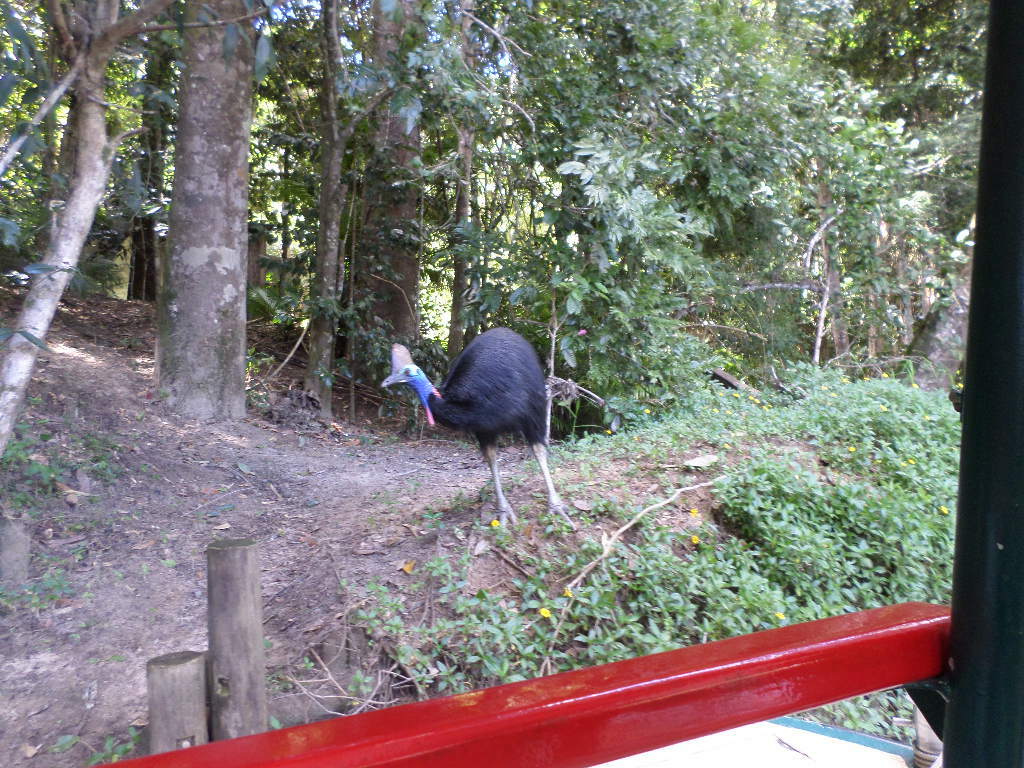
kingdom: Animalia
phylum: Chordata
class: Aves
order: Casuariiformes
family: Casuariidae
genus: Casuarius
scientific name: Casuarius casuarius
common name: Southern cassowary
